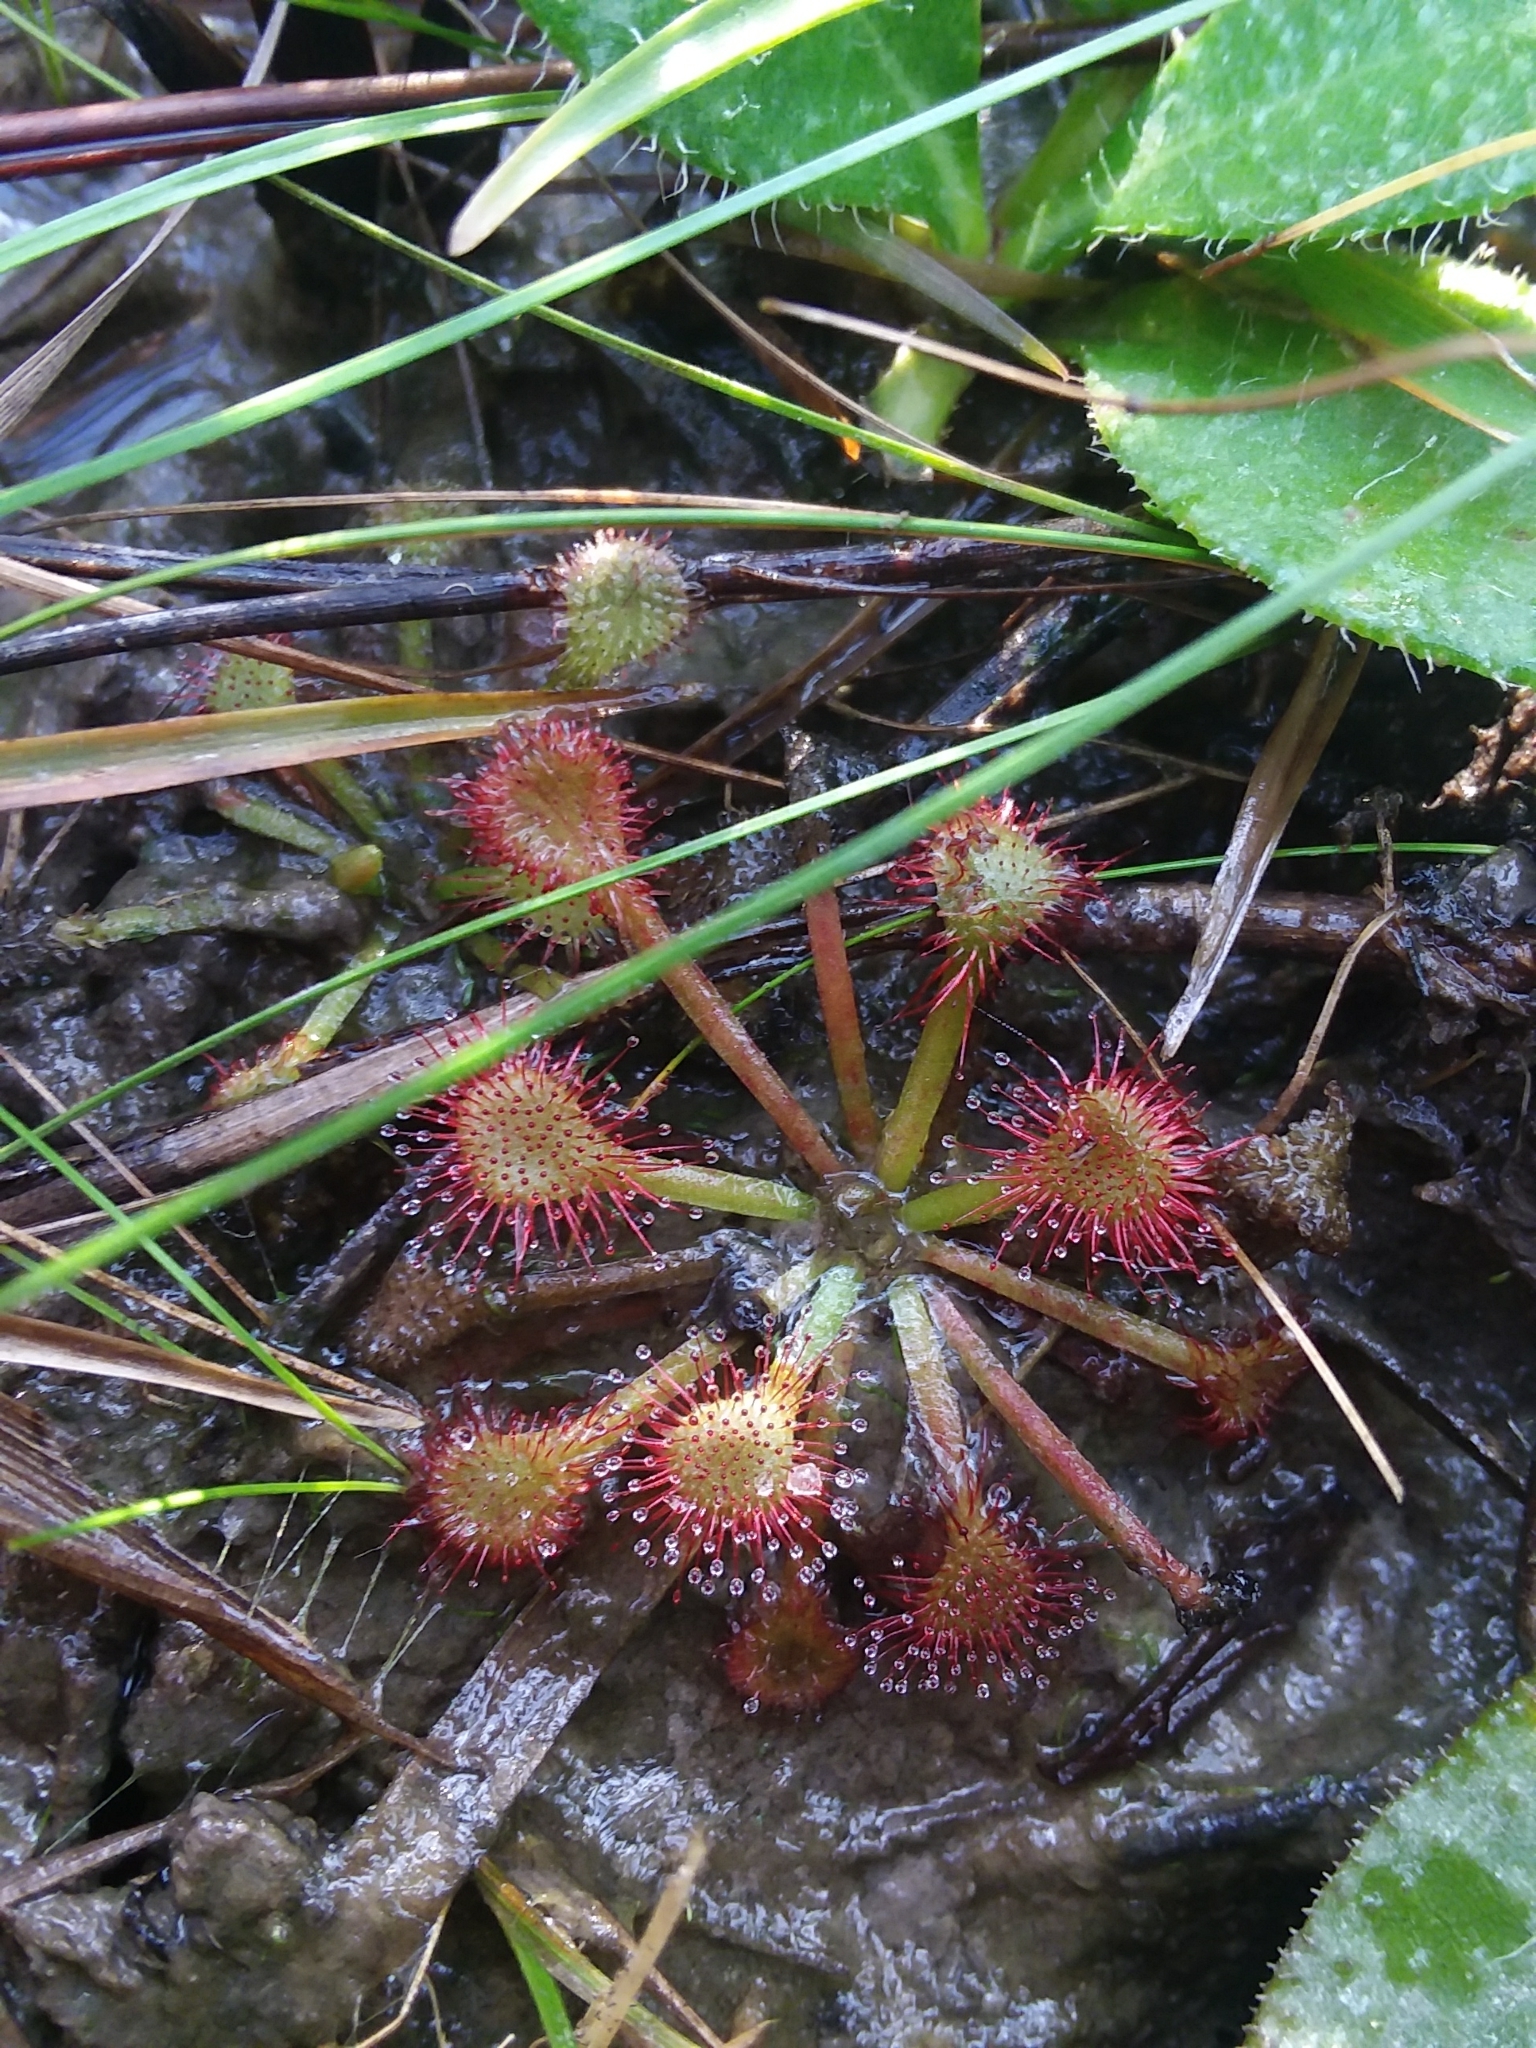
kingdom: Plantae
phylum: Tracheophyta
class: Magnoliopsida
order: Caryophyllales
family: Droseraceae
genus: Drosera
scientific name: Drosera capillaris
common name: Pink sundew
